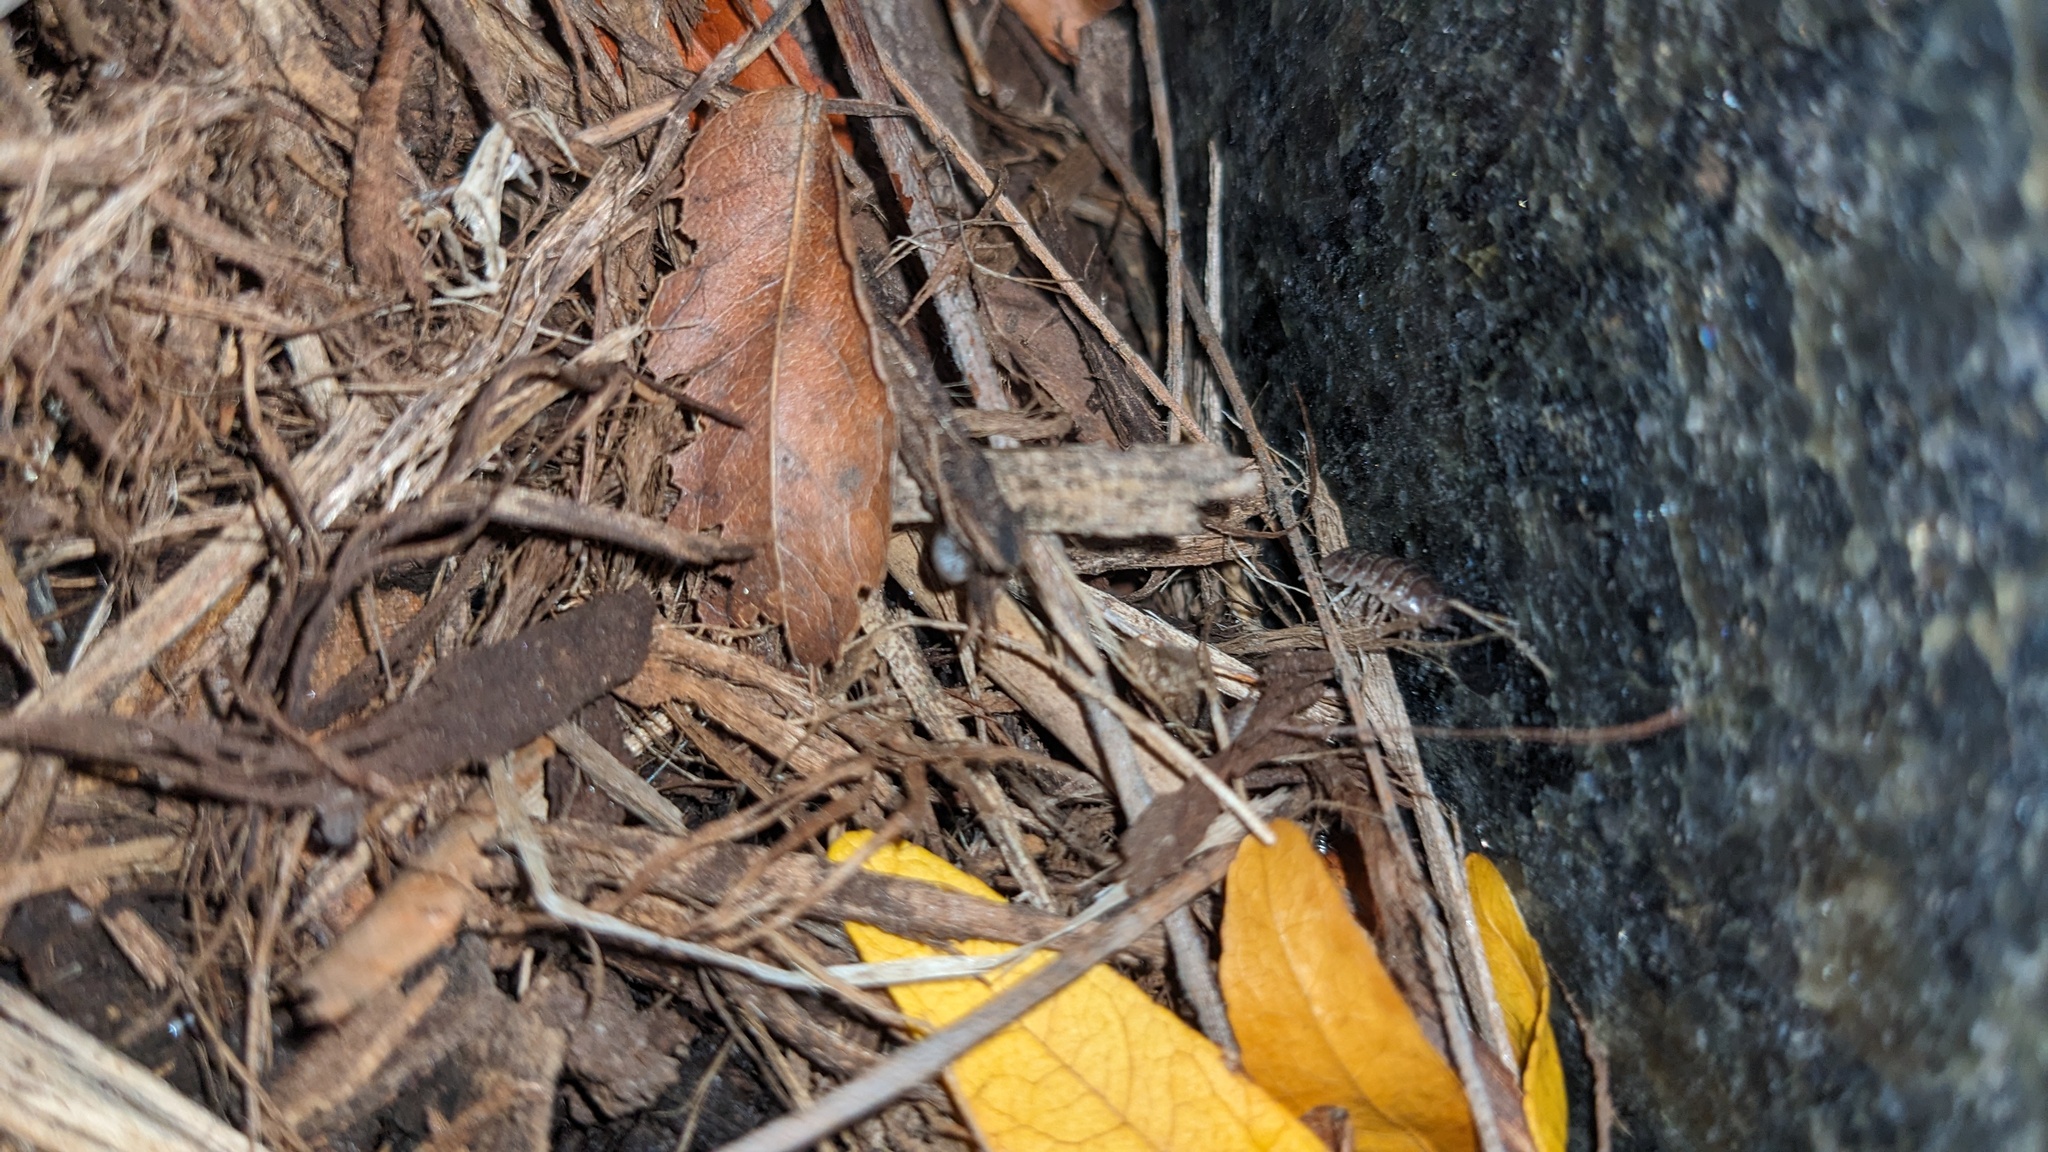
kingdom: Animalia
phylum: Arthropoda
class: Malacostraca
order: Isopoda
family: Armadillidiidae
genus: Armadillidium
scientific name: Armadillidium vulgare
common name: Common pill woodlouse
